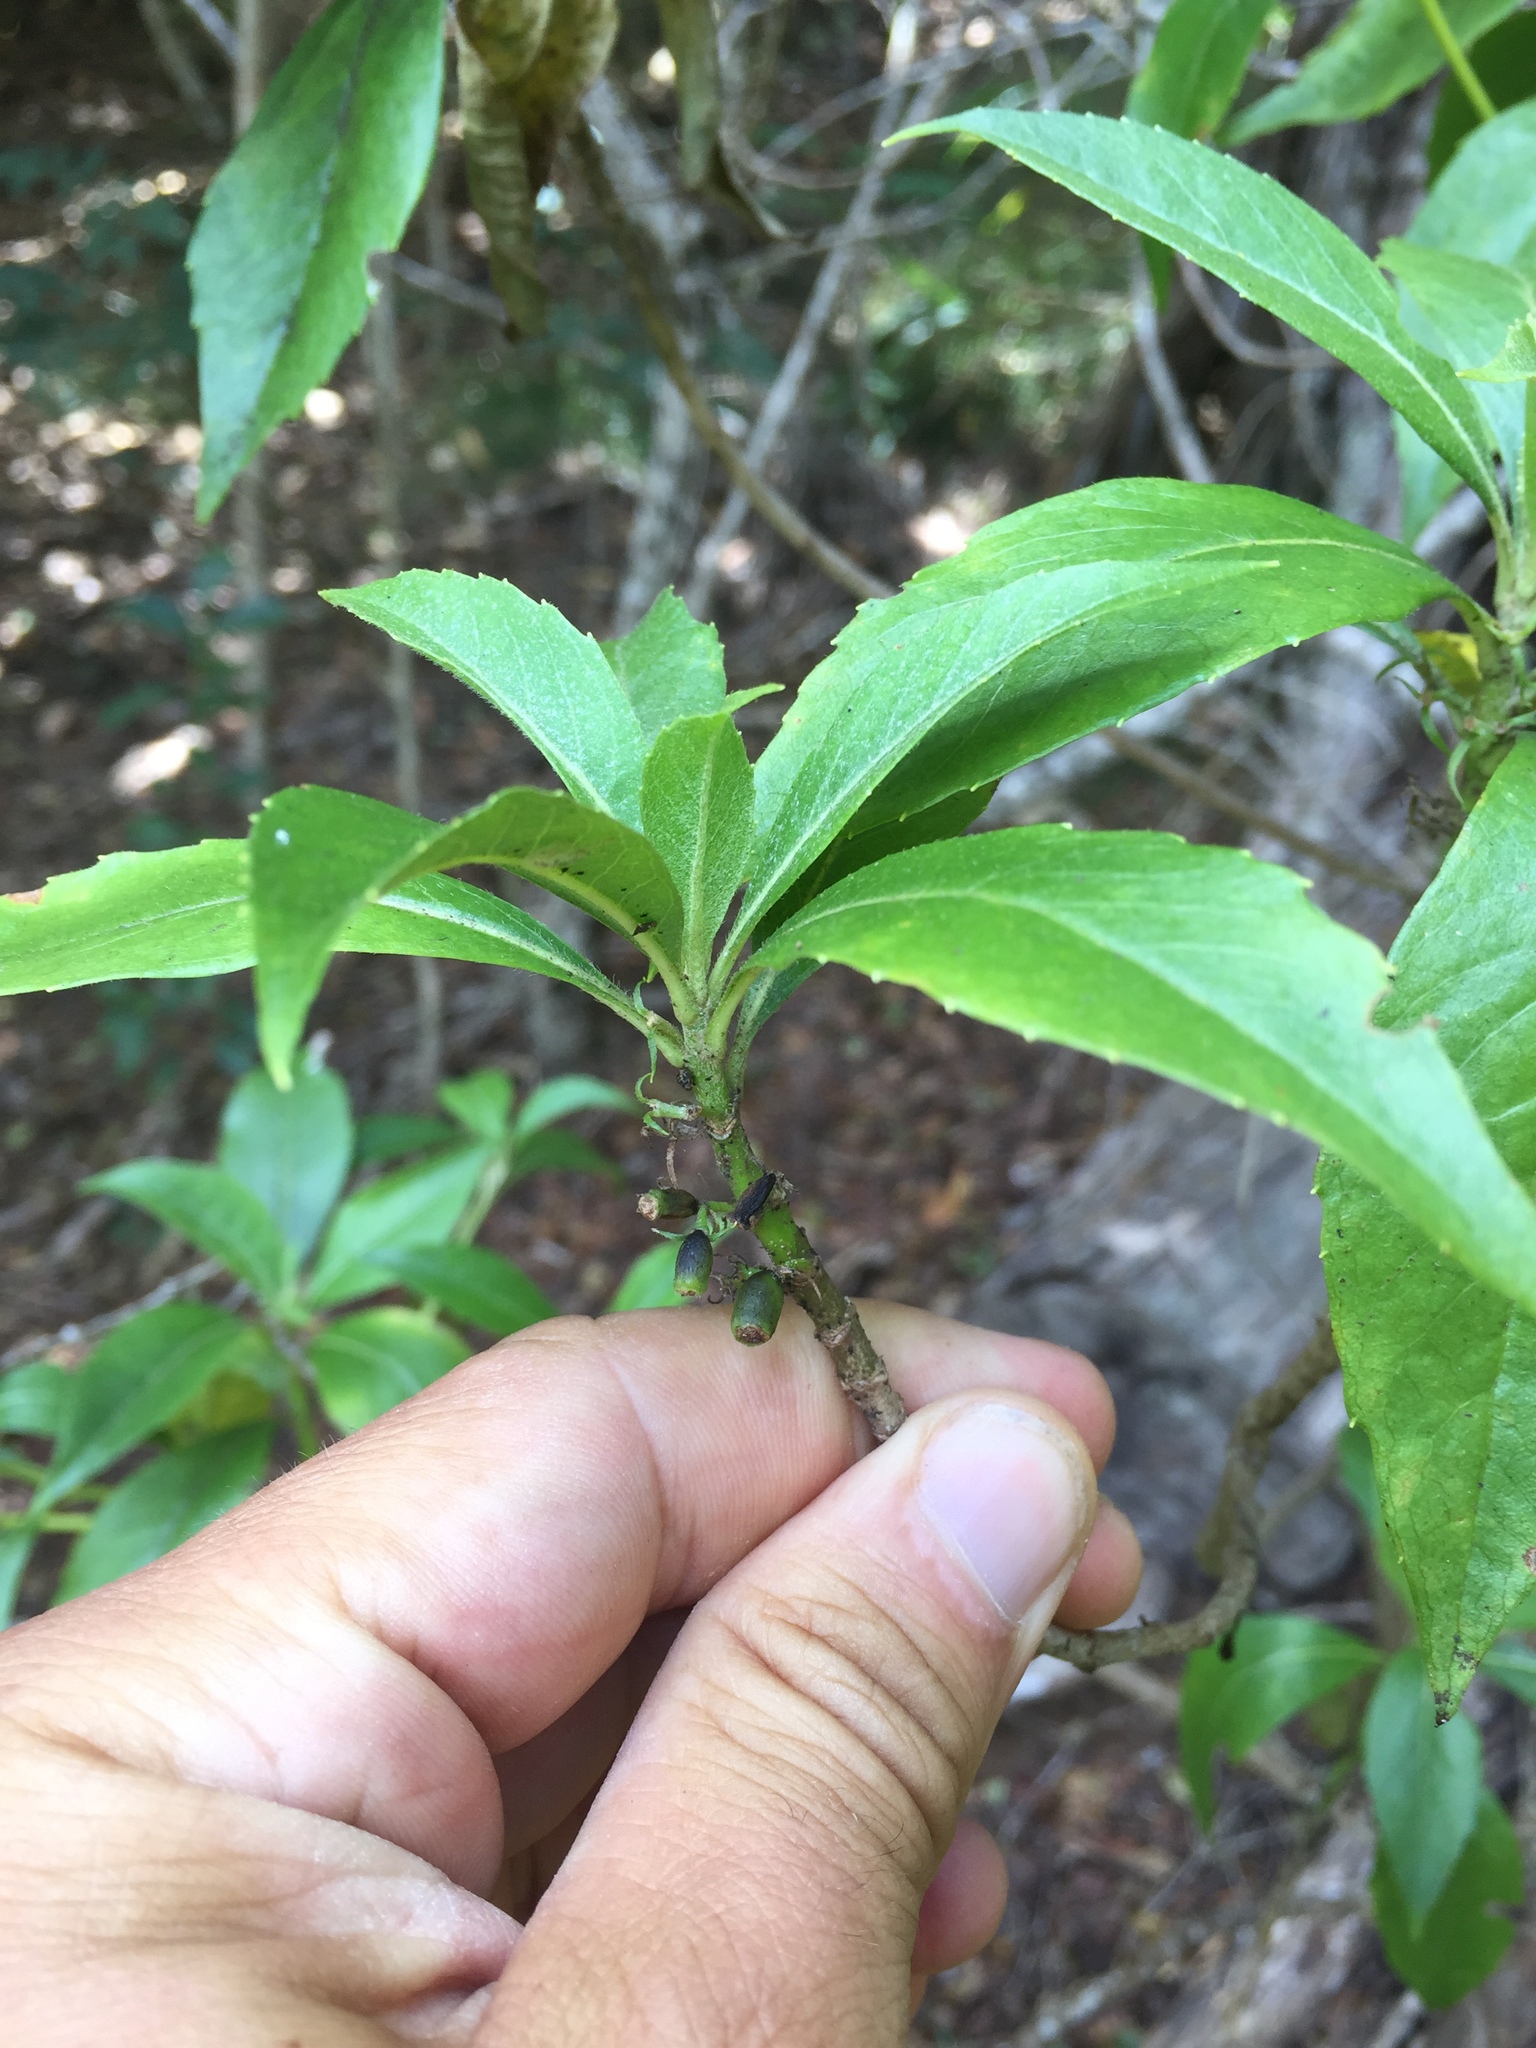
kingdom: Plantae
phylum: Tracheophyta
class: Magnoliopsida
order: Asterales
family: Goodeniaceae
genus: Scaevola
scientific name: Scaevola procera
